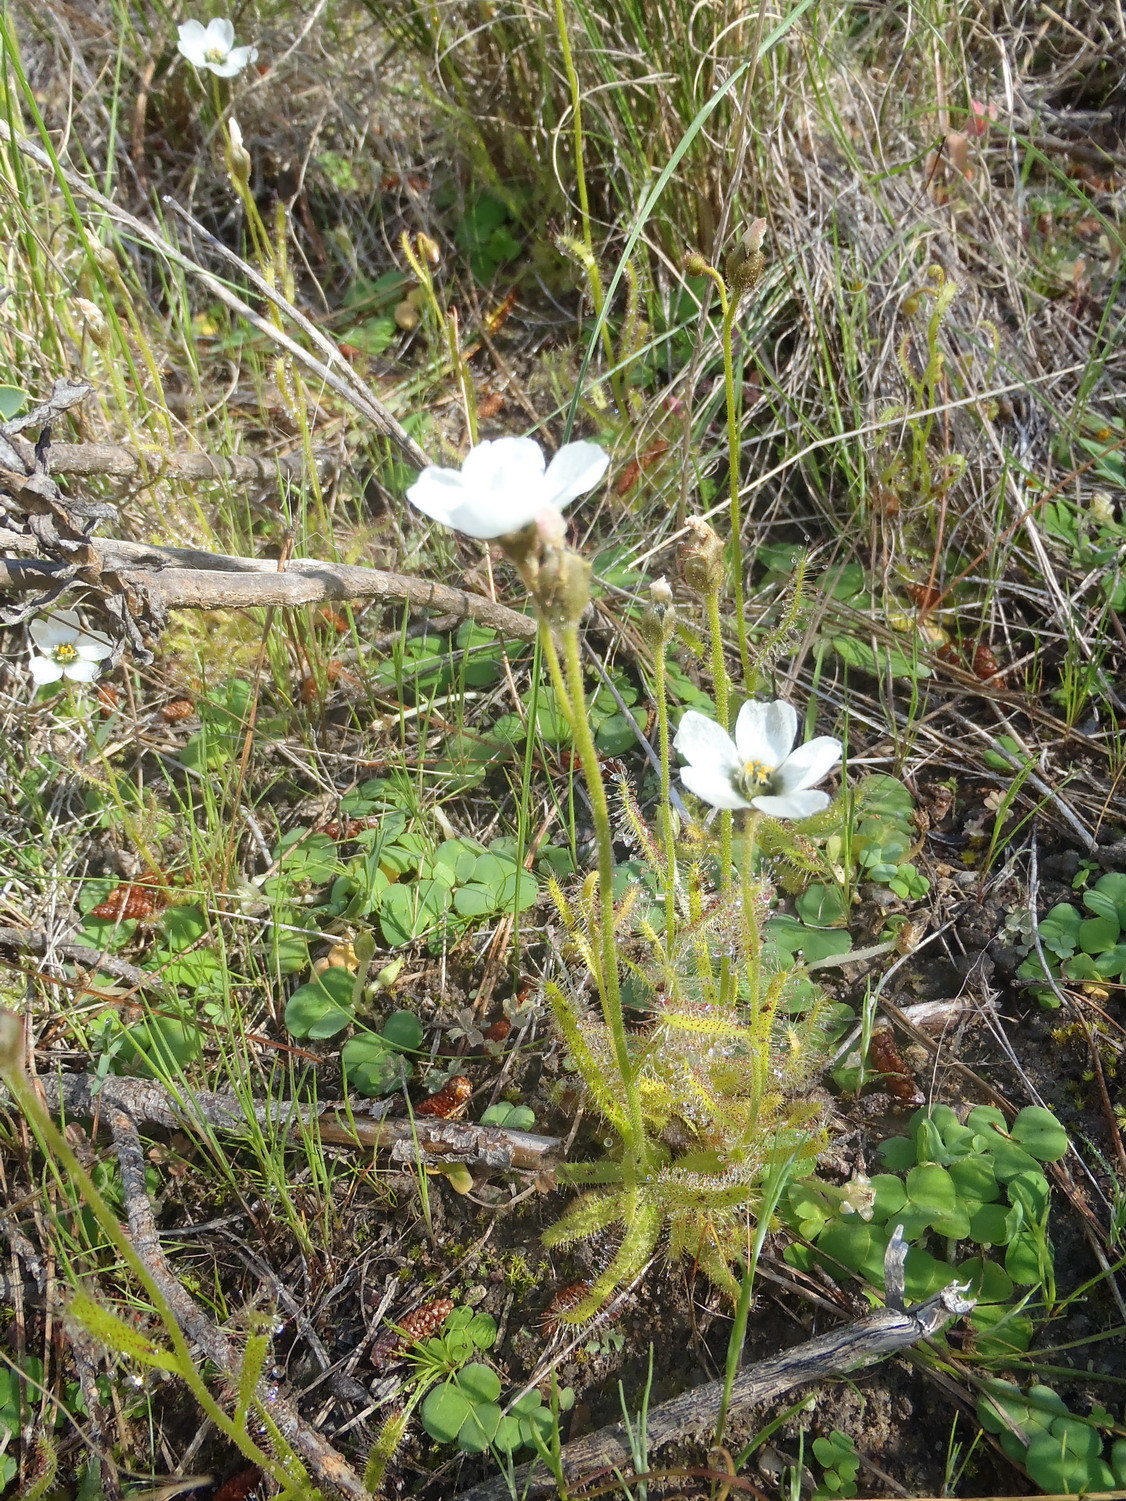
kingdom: Plantae
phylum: Tracheophyta
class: Magnoliopsida
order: Caryophyllales
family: Droseraceae
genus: Drosera
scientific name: Drosera cistiflora
